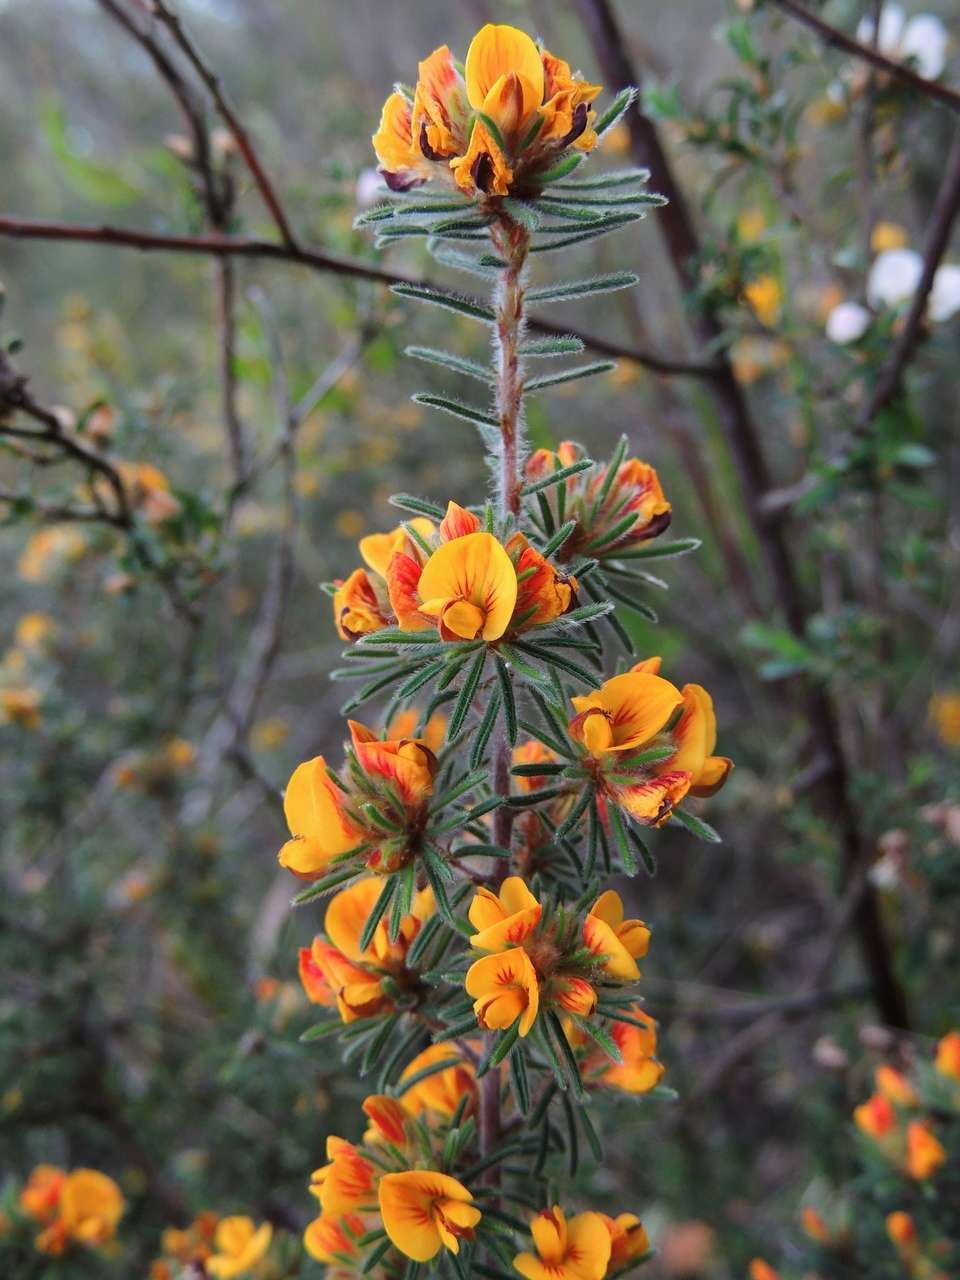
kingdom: Plantae
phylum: Tracheophyta
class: Magnoliopsida
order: Fabales
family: Fabaceae
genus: Pultenaea
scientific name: Pultenaea daltonii
